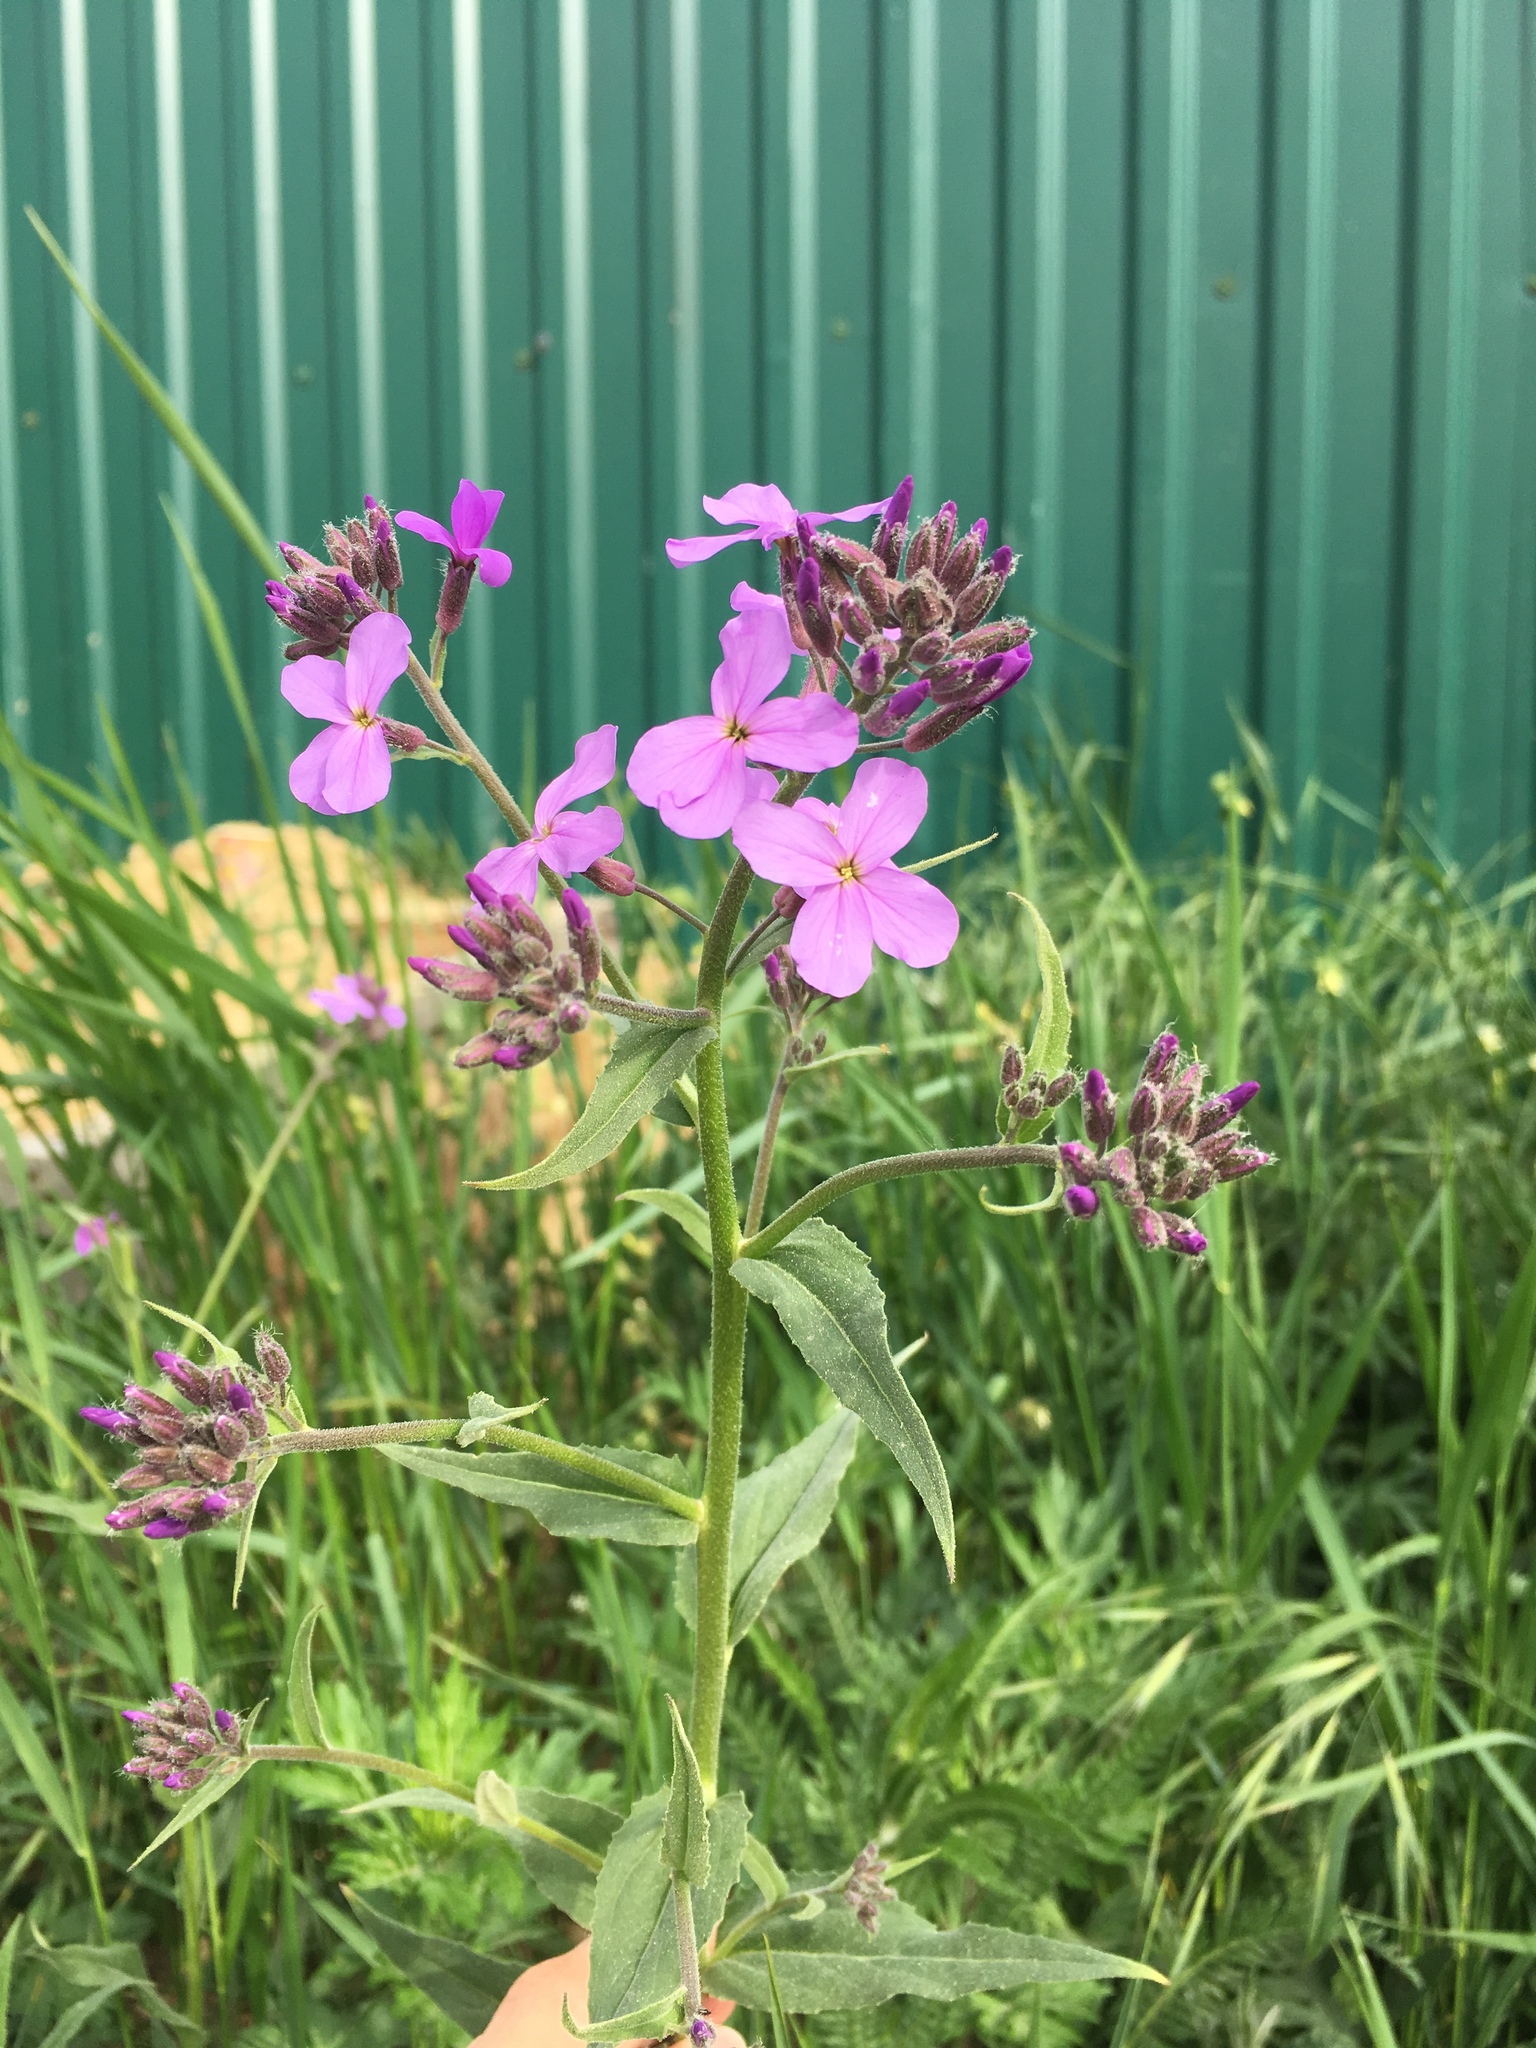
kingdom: Plantae
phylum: Tracheophyta
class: Magnoliopsida
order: Brassicales
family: Brassicaceae
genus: Hesperis
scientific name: Hesperis matronalis
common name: Dame's-violet
